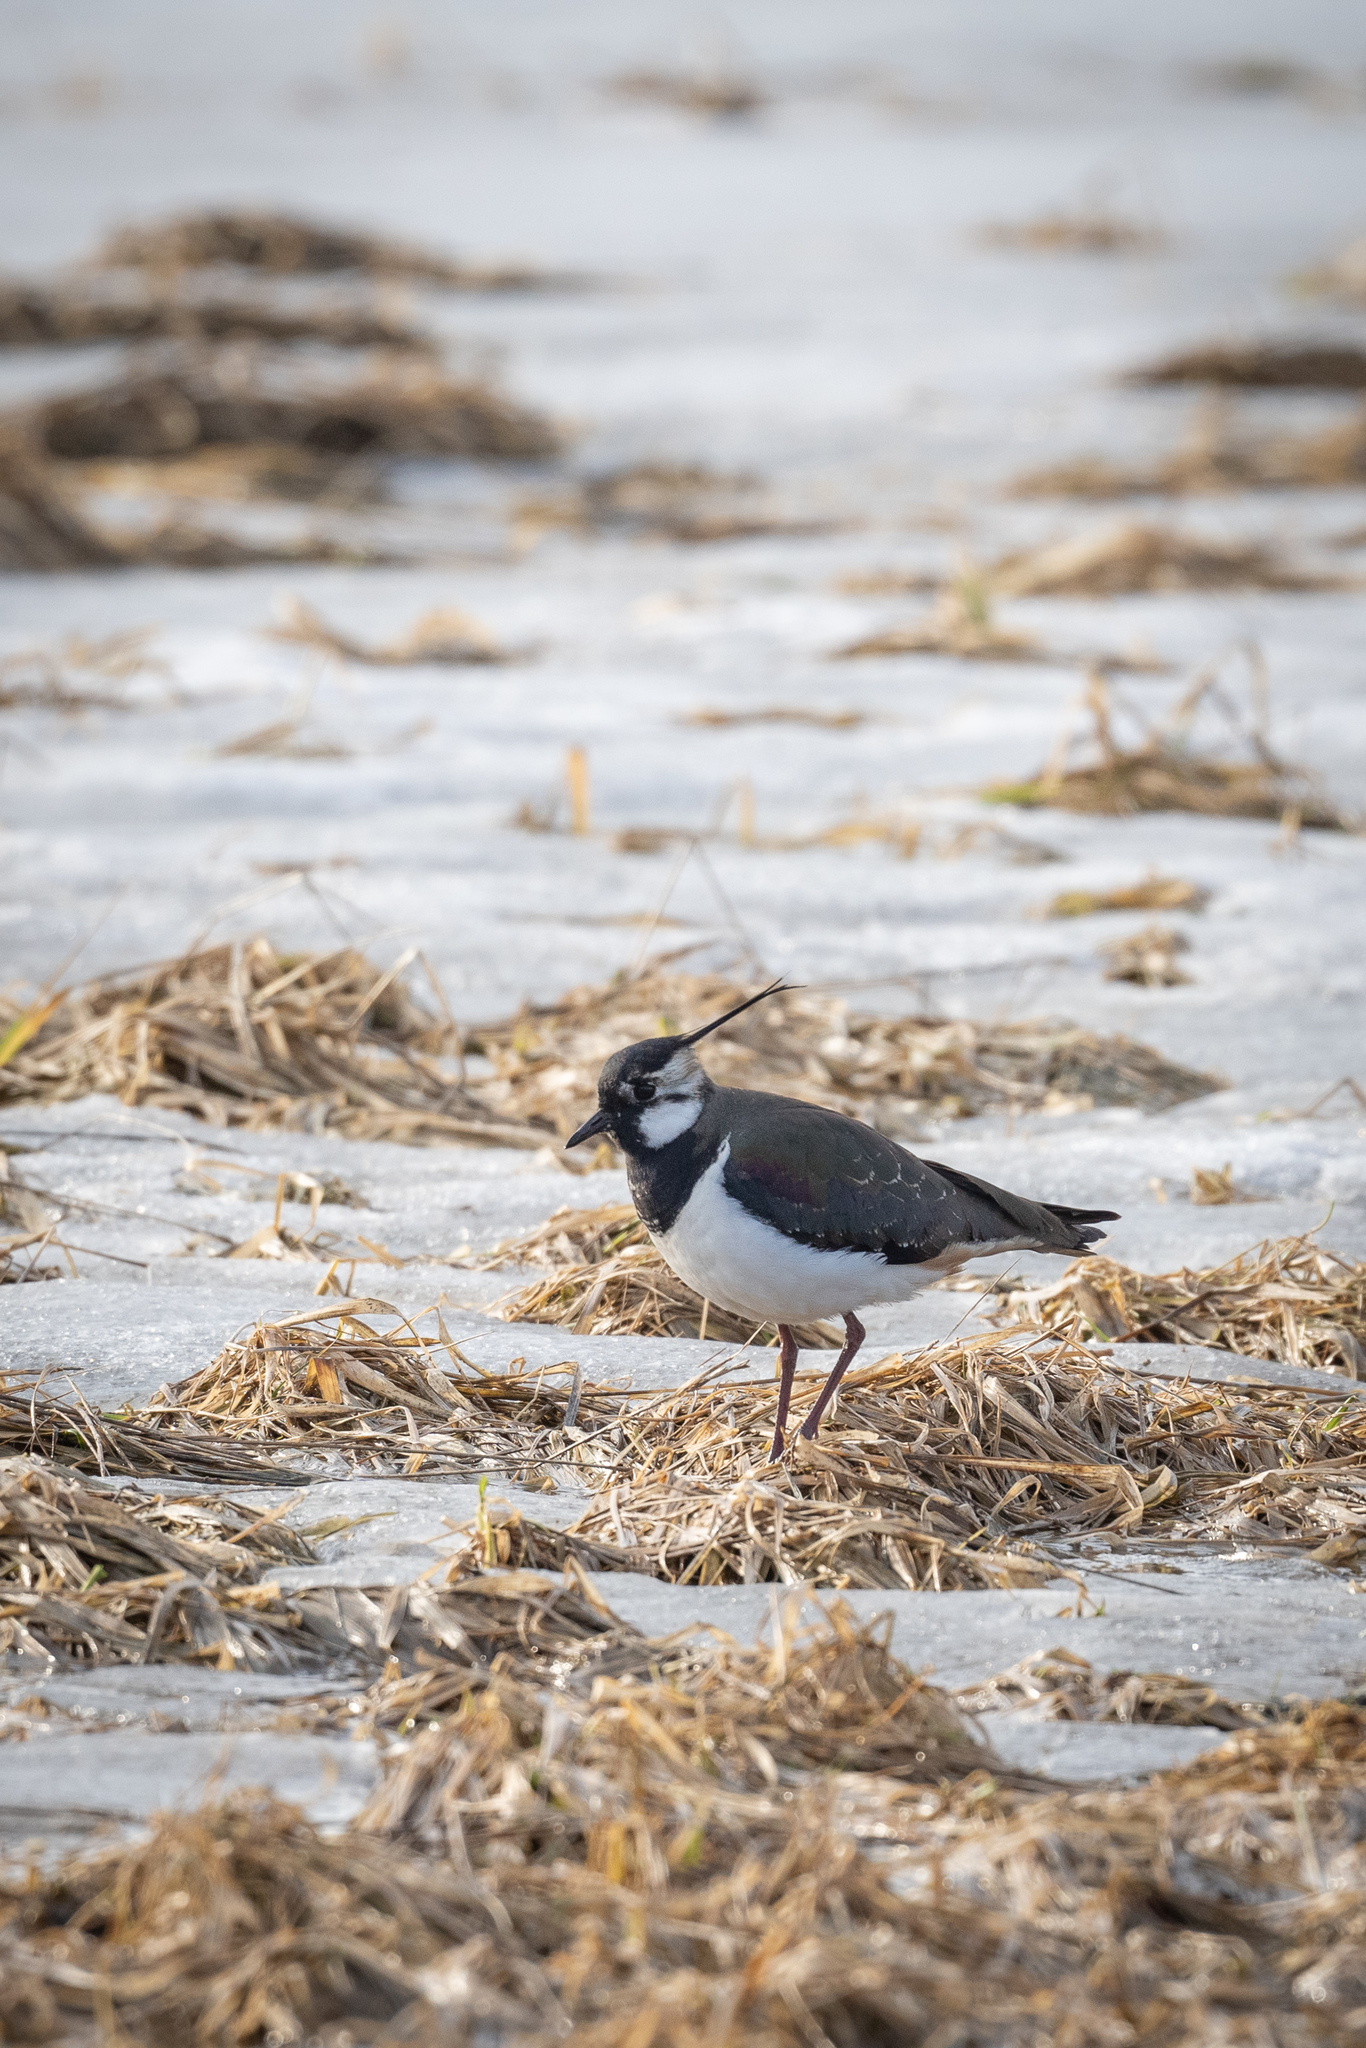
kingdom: Animalia
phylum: Chordata
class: Aves
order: Charadriiformes
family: Charadriidae
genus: Vanellus
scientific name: Vanellus vanellus
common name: Northern lapwing
